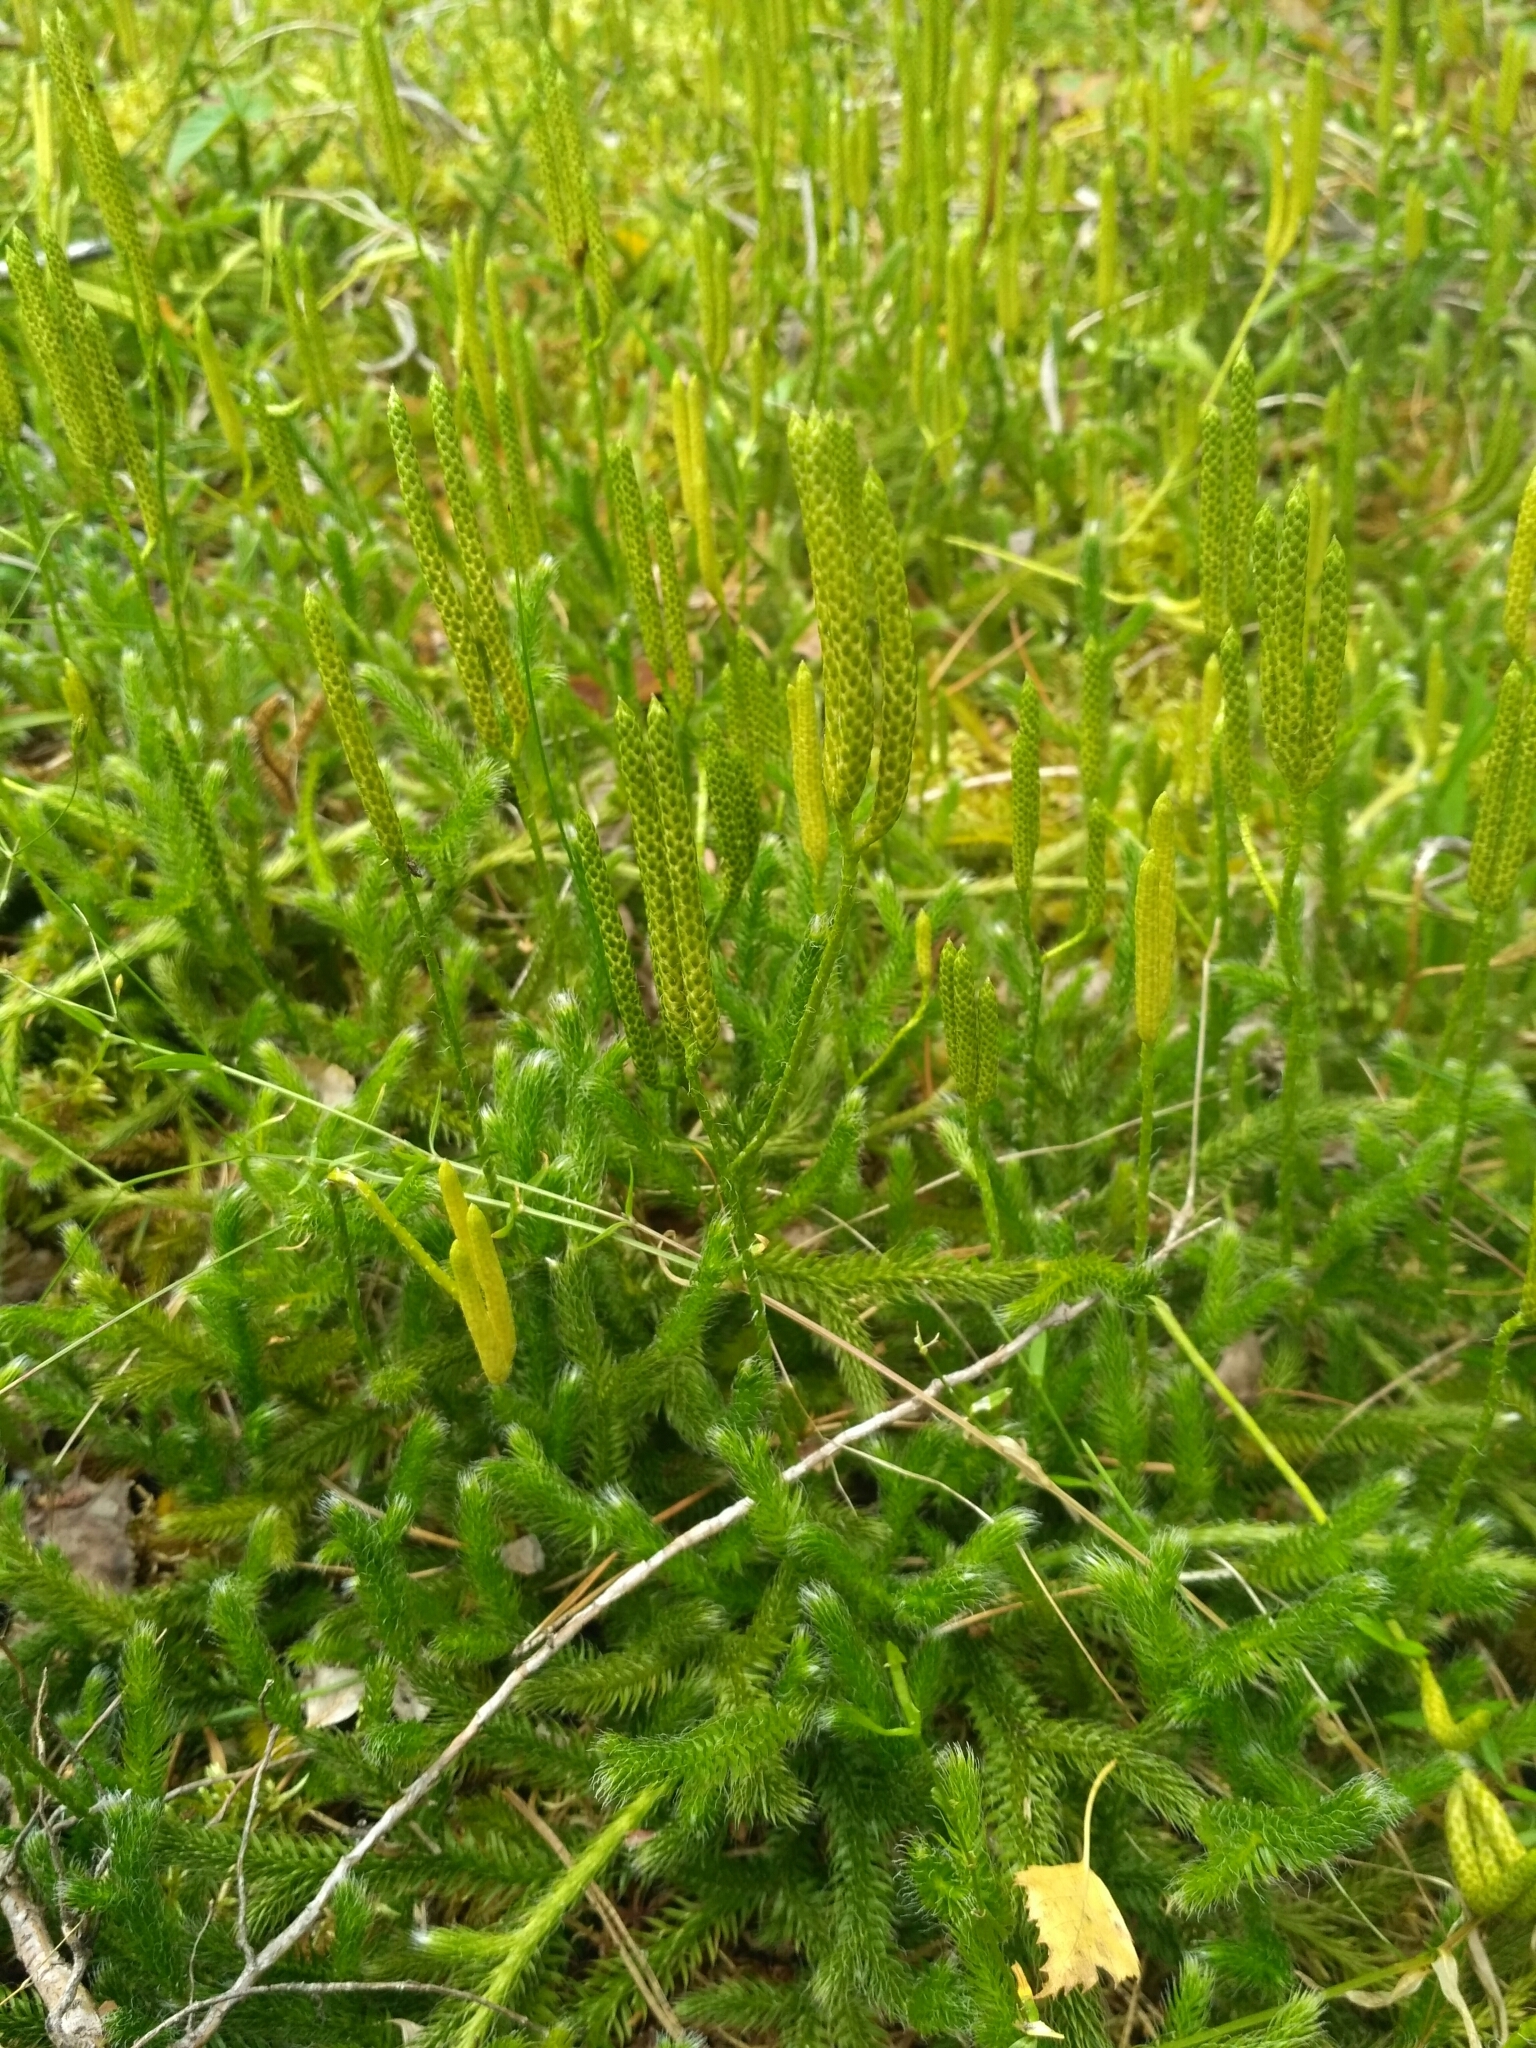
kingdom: Plantae
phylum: Tracheophyta
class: Lycopodiopsida
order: Lycopodiales
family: Lycopodiaceae
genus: Lycopodium
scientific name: Lycopodium clavatum
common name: Stag's-horn clubmoss
